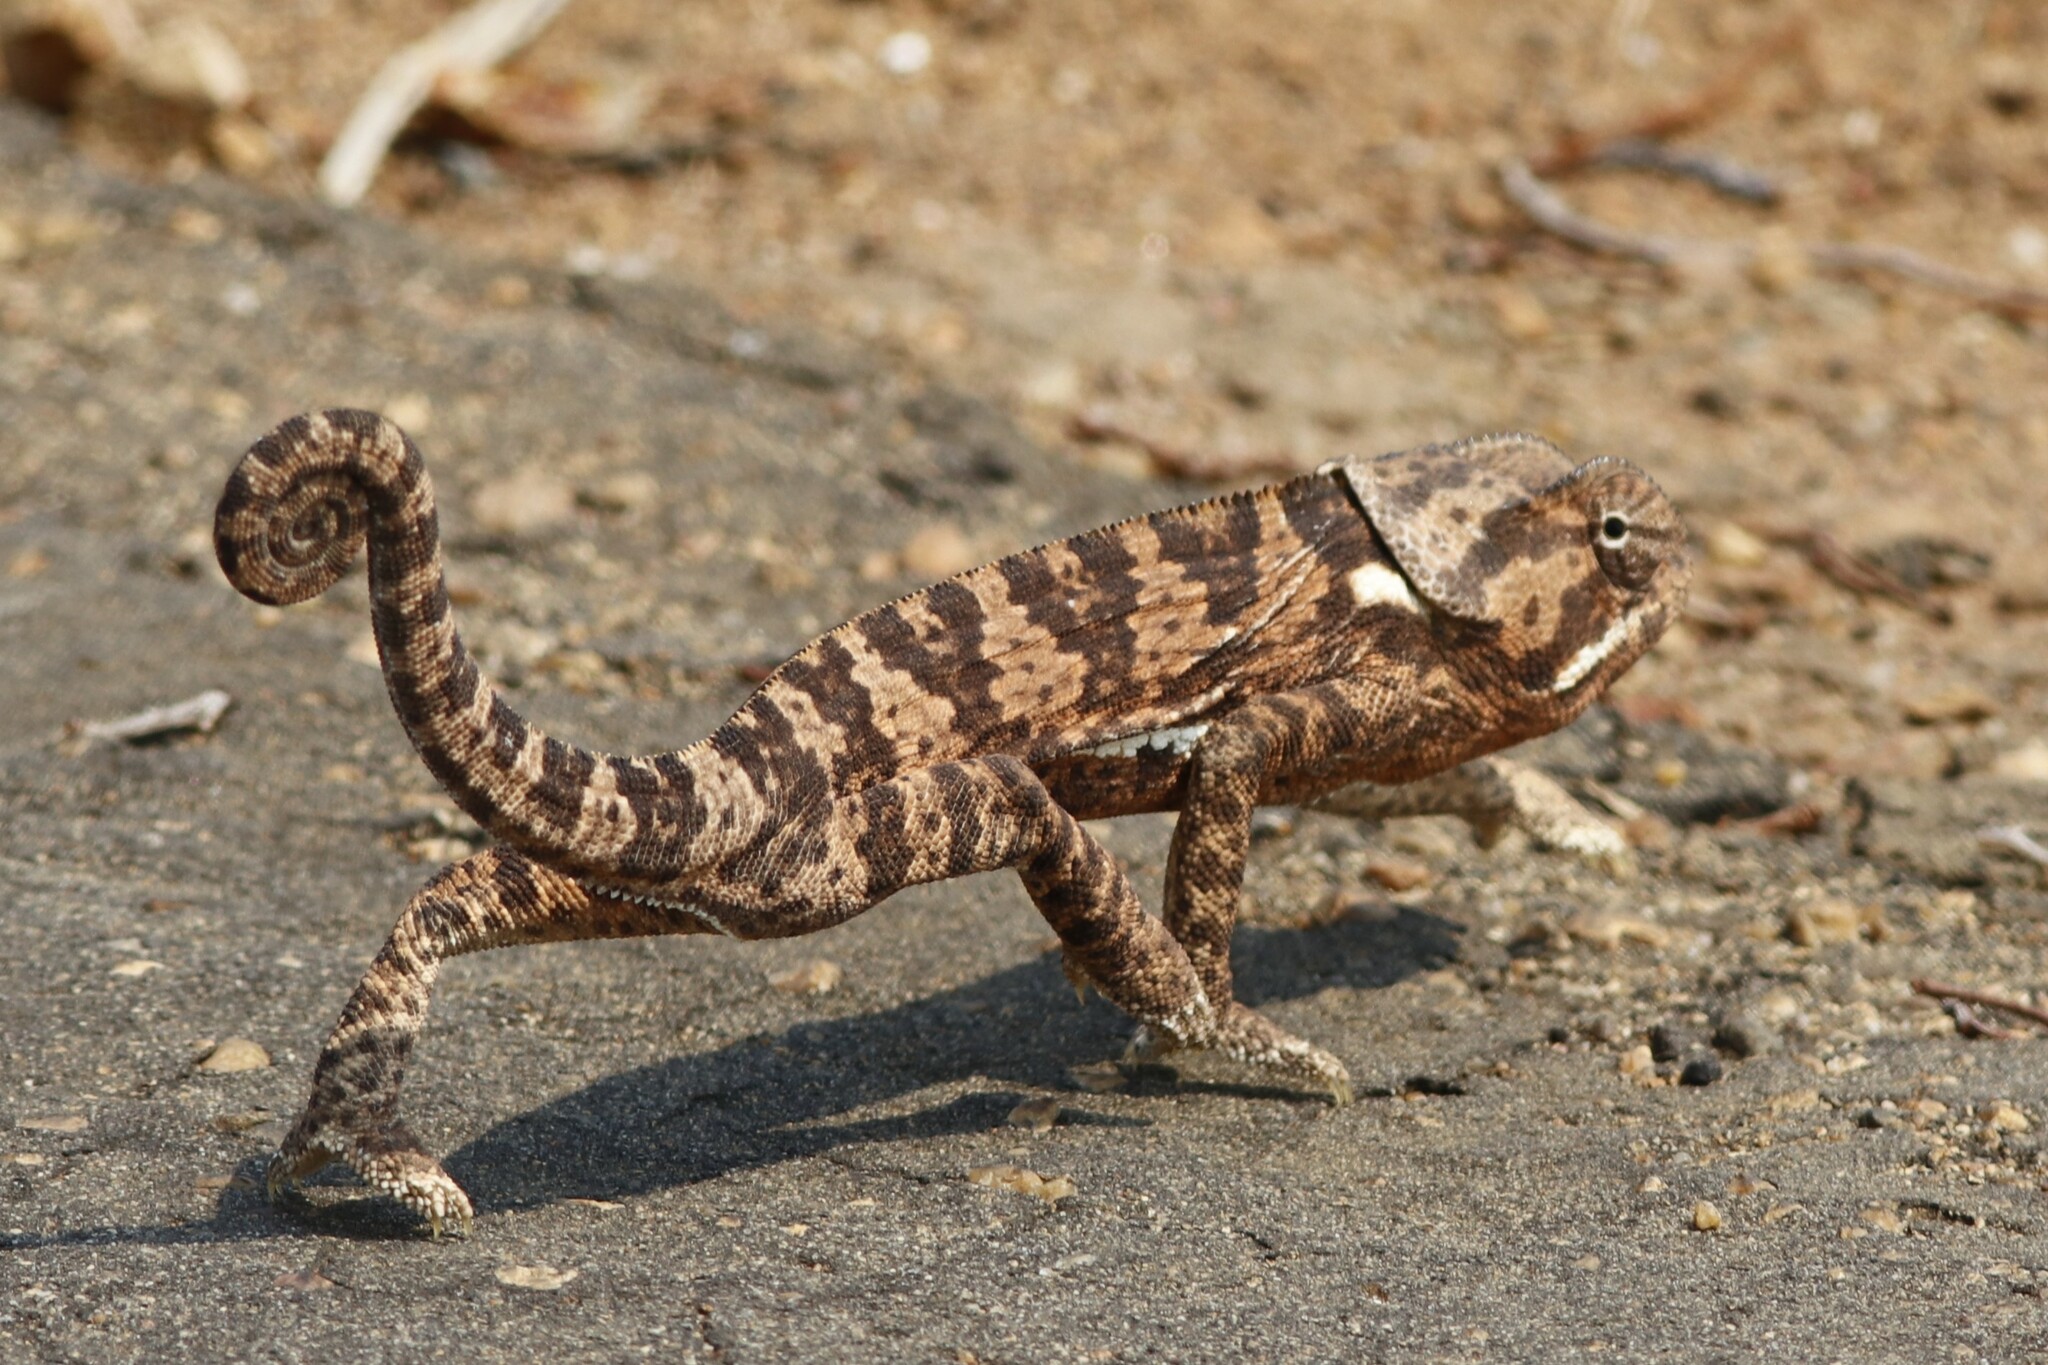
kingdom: Animalia
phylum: Chordata
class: Squamata
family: Chamaeleonidae
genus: Chamaeleo
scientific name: Chamaeleo dilepis
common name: Flapneck chameleon
